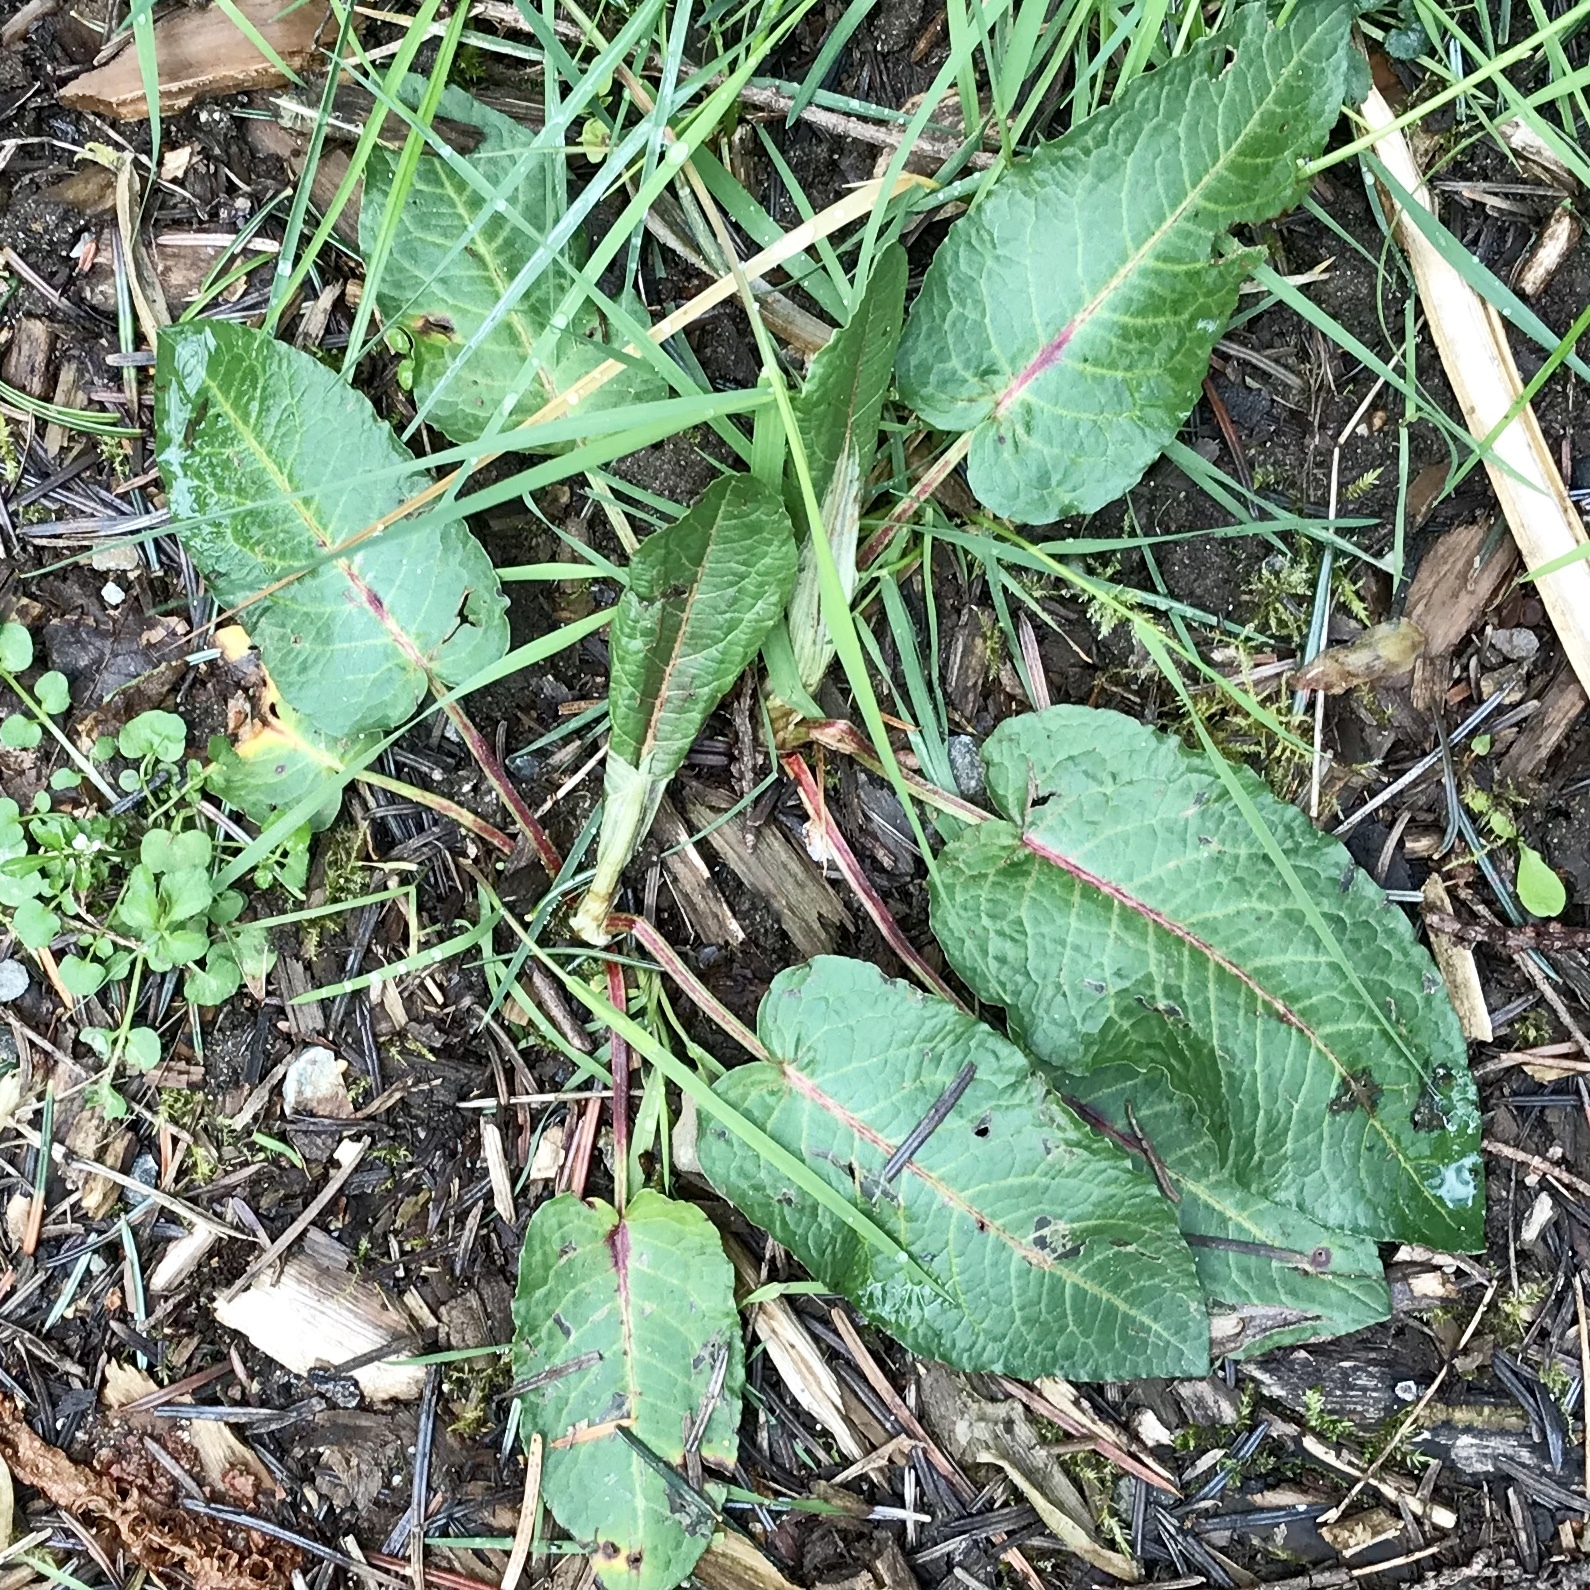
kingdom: Plantae
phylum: Tracheophyta
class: Magnoliopsida
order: Caryophyllales
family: Polygonaceae
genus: Rumex
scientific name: Rumex obtusifolius
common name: Bitter dock
